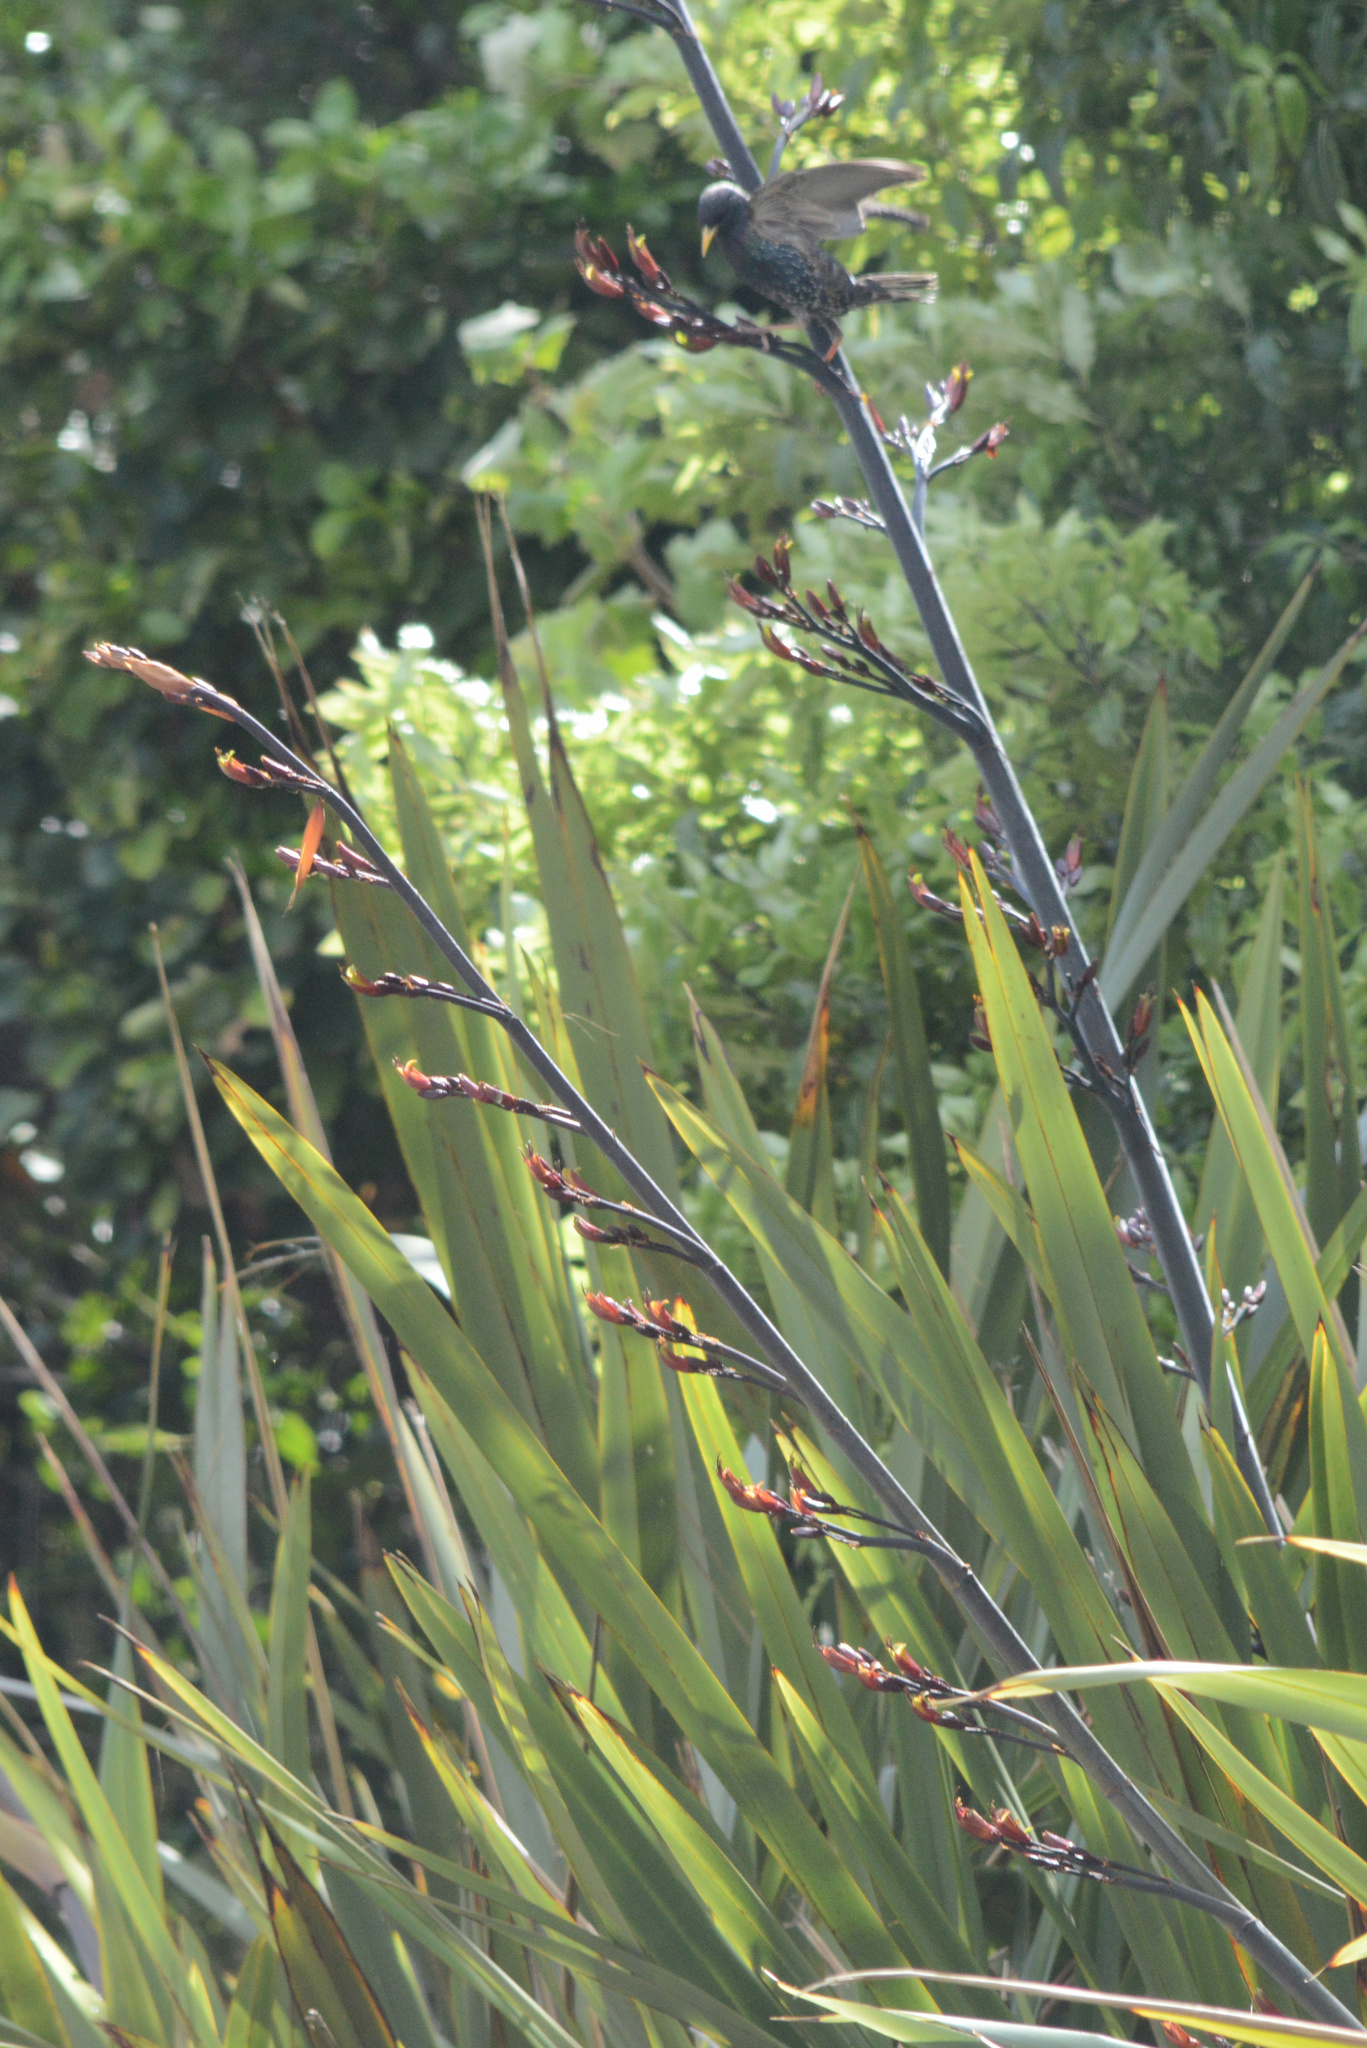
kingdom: Animalia
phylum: Chordata
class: Aves
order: Passeriformes
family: Sturnidae
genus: Sturnus
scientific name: Sturnus vulgaris
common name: Common starling
